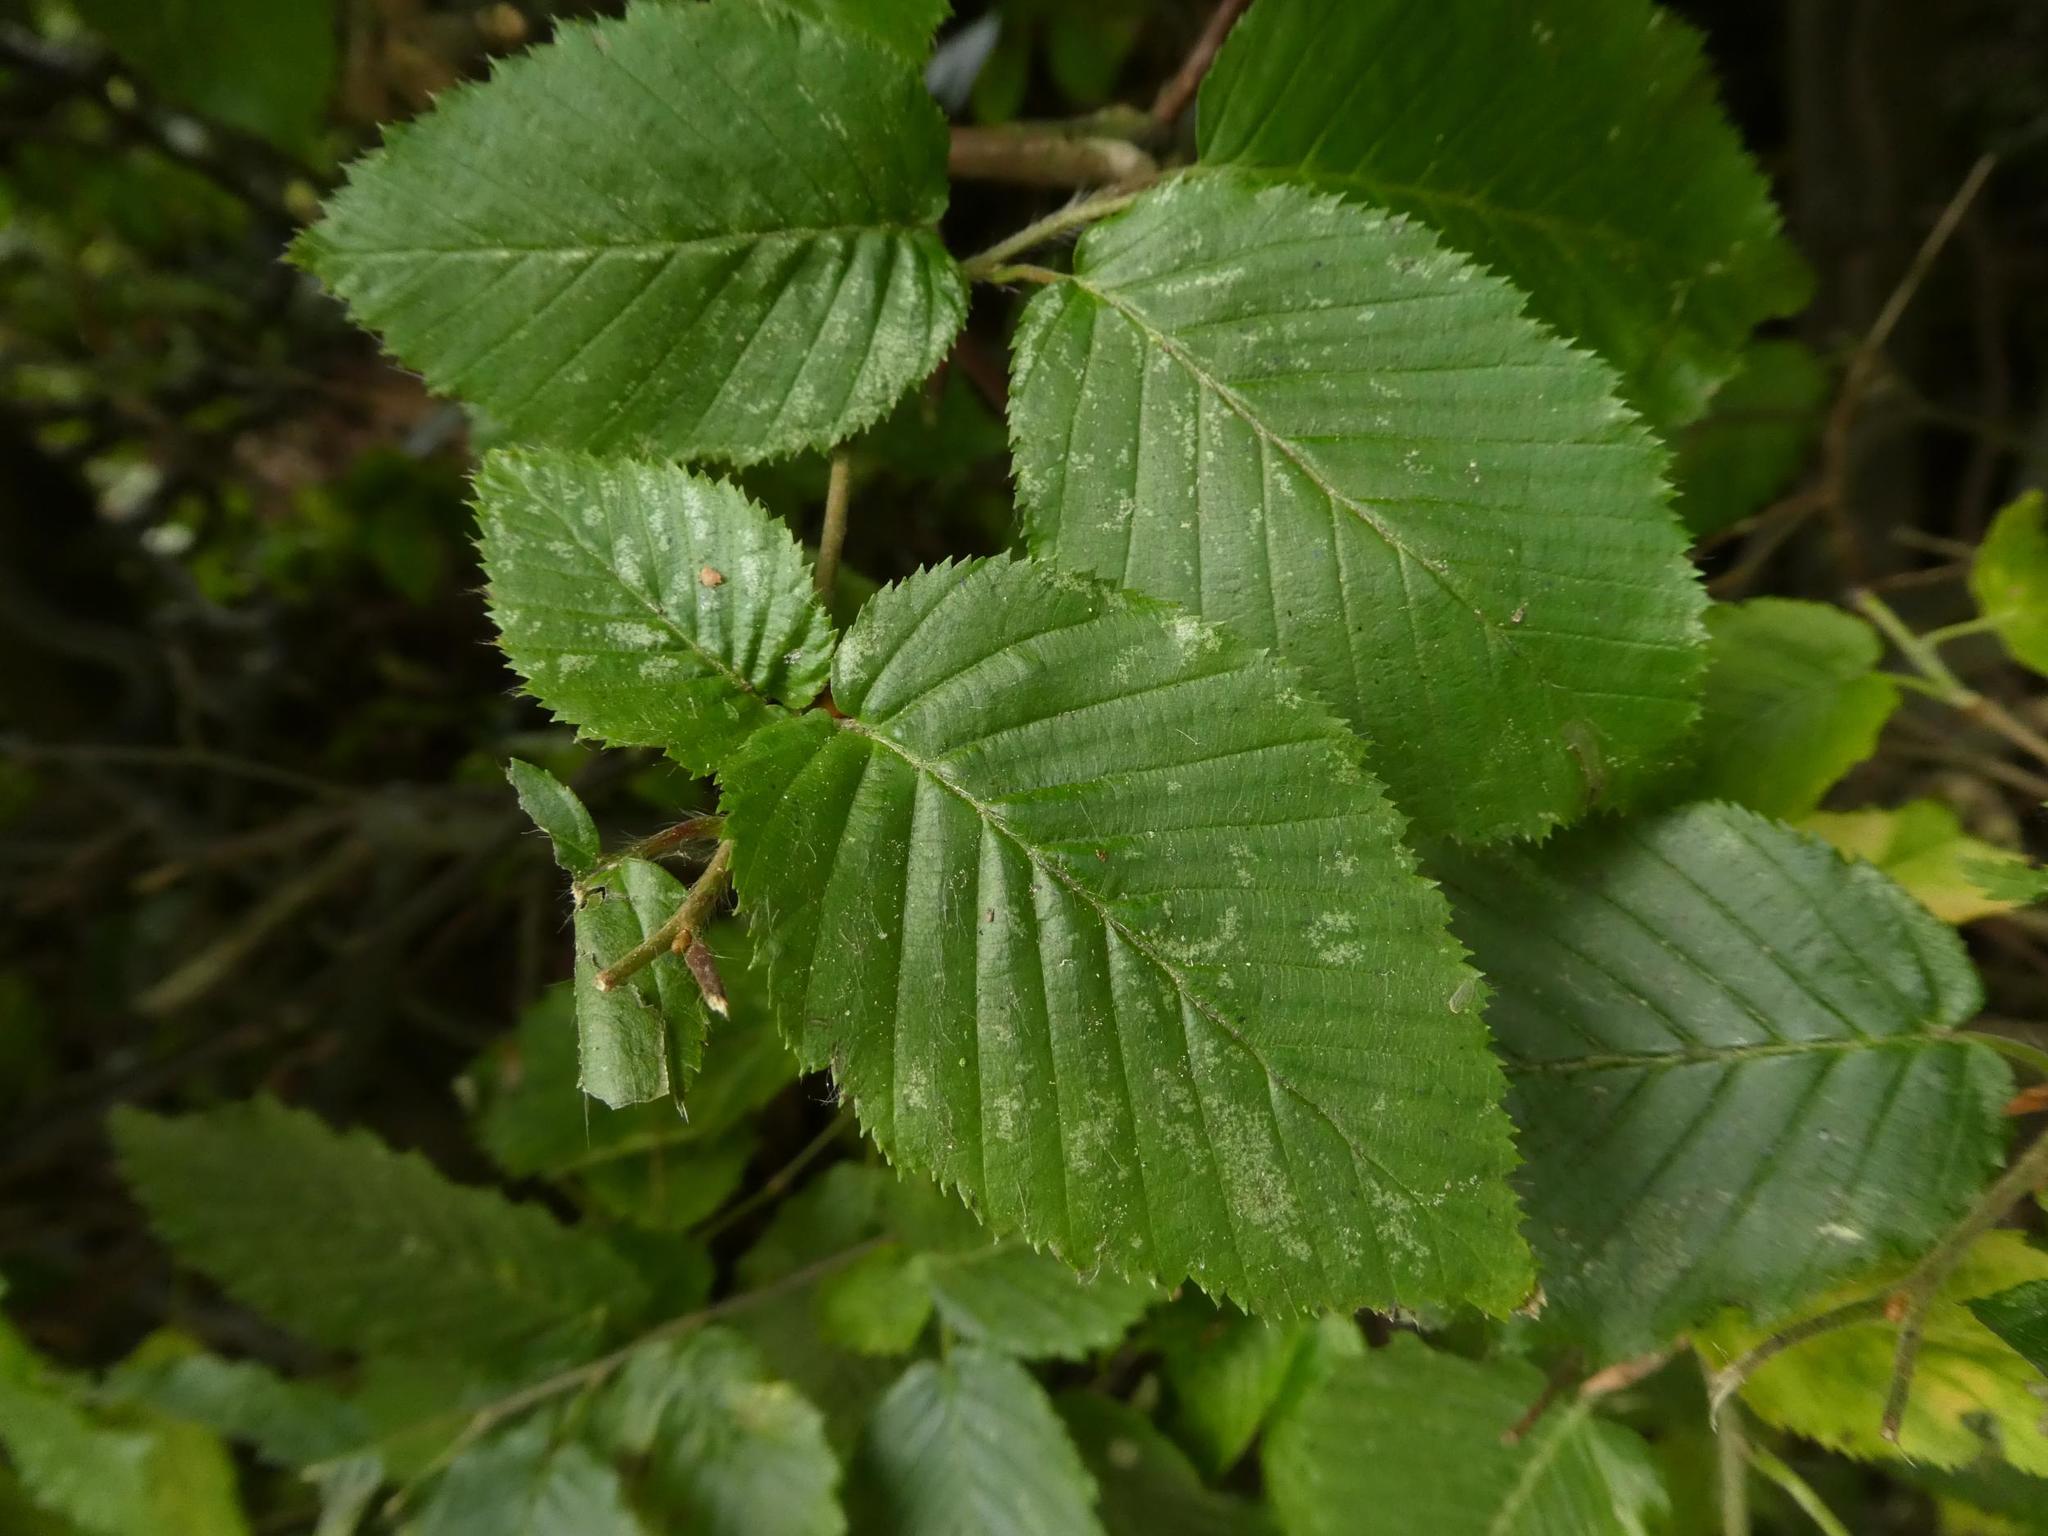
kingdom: Plantae
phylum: Tracheophyta
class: Magnoliopsida
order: Fagales
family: Betulaceae
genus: Carpinus
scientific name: Carpinus betulus
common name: Hornbeam
